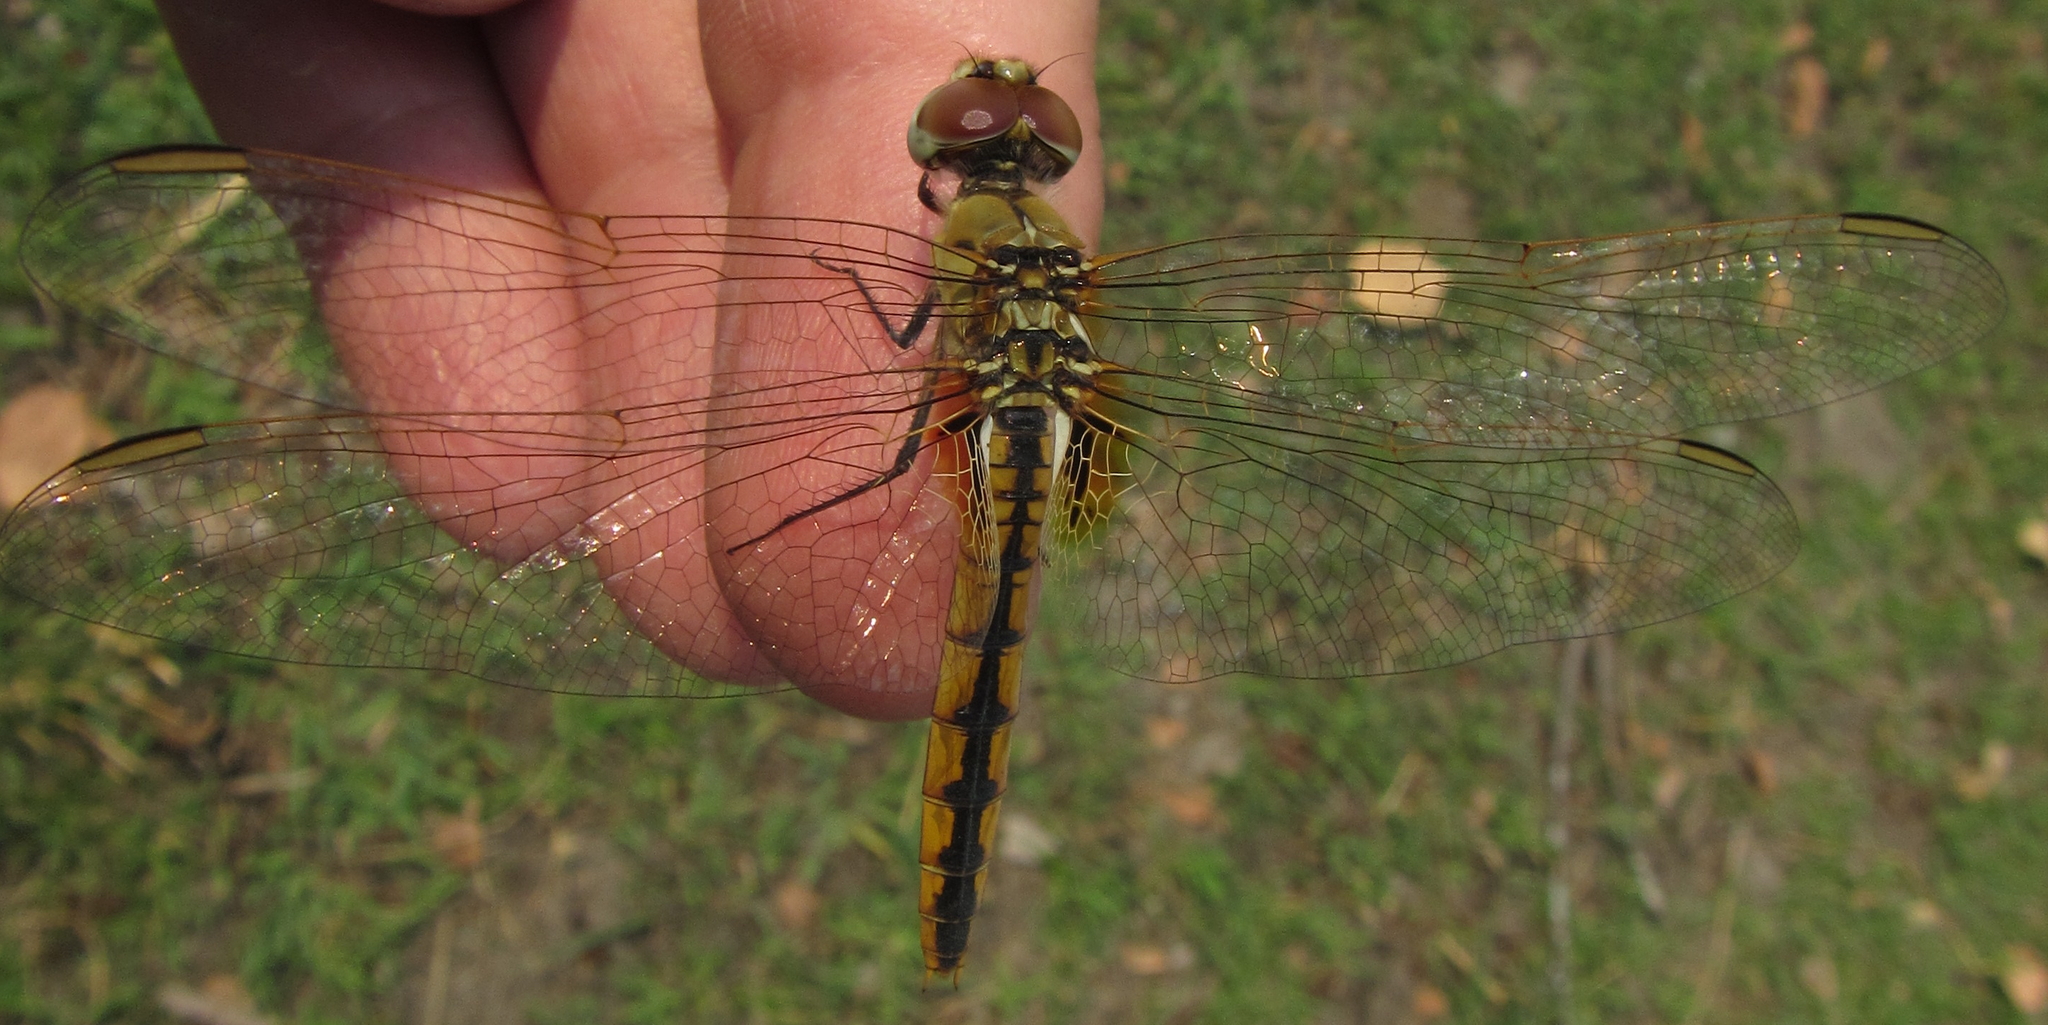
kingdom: Animalia
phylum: Arthropoda
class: Insecta
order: Odonata
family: Libellulidae
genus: Urothemis
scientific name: Urothemis edwardsii
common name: Blue basker
